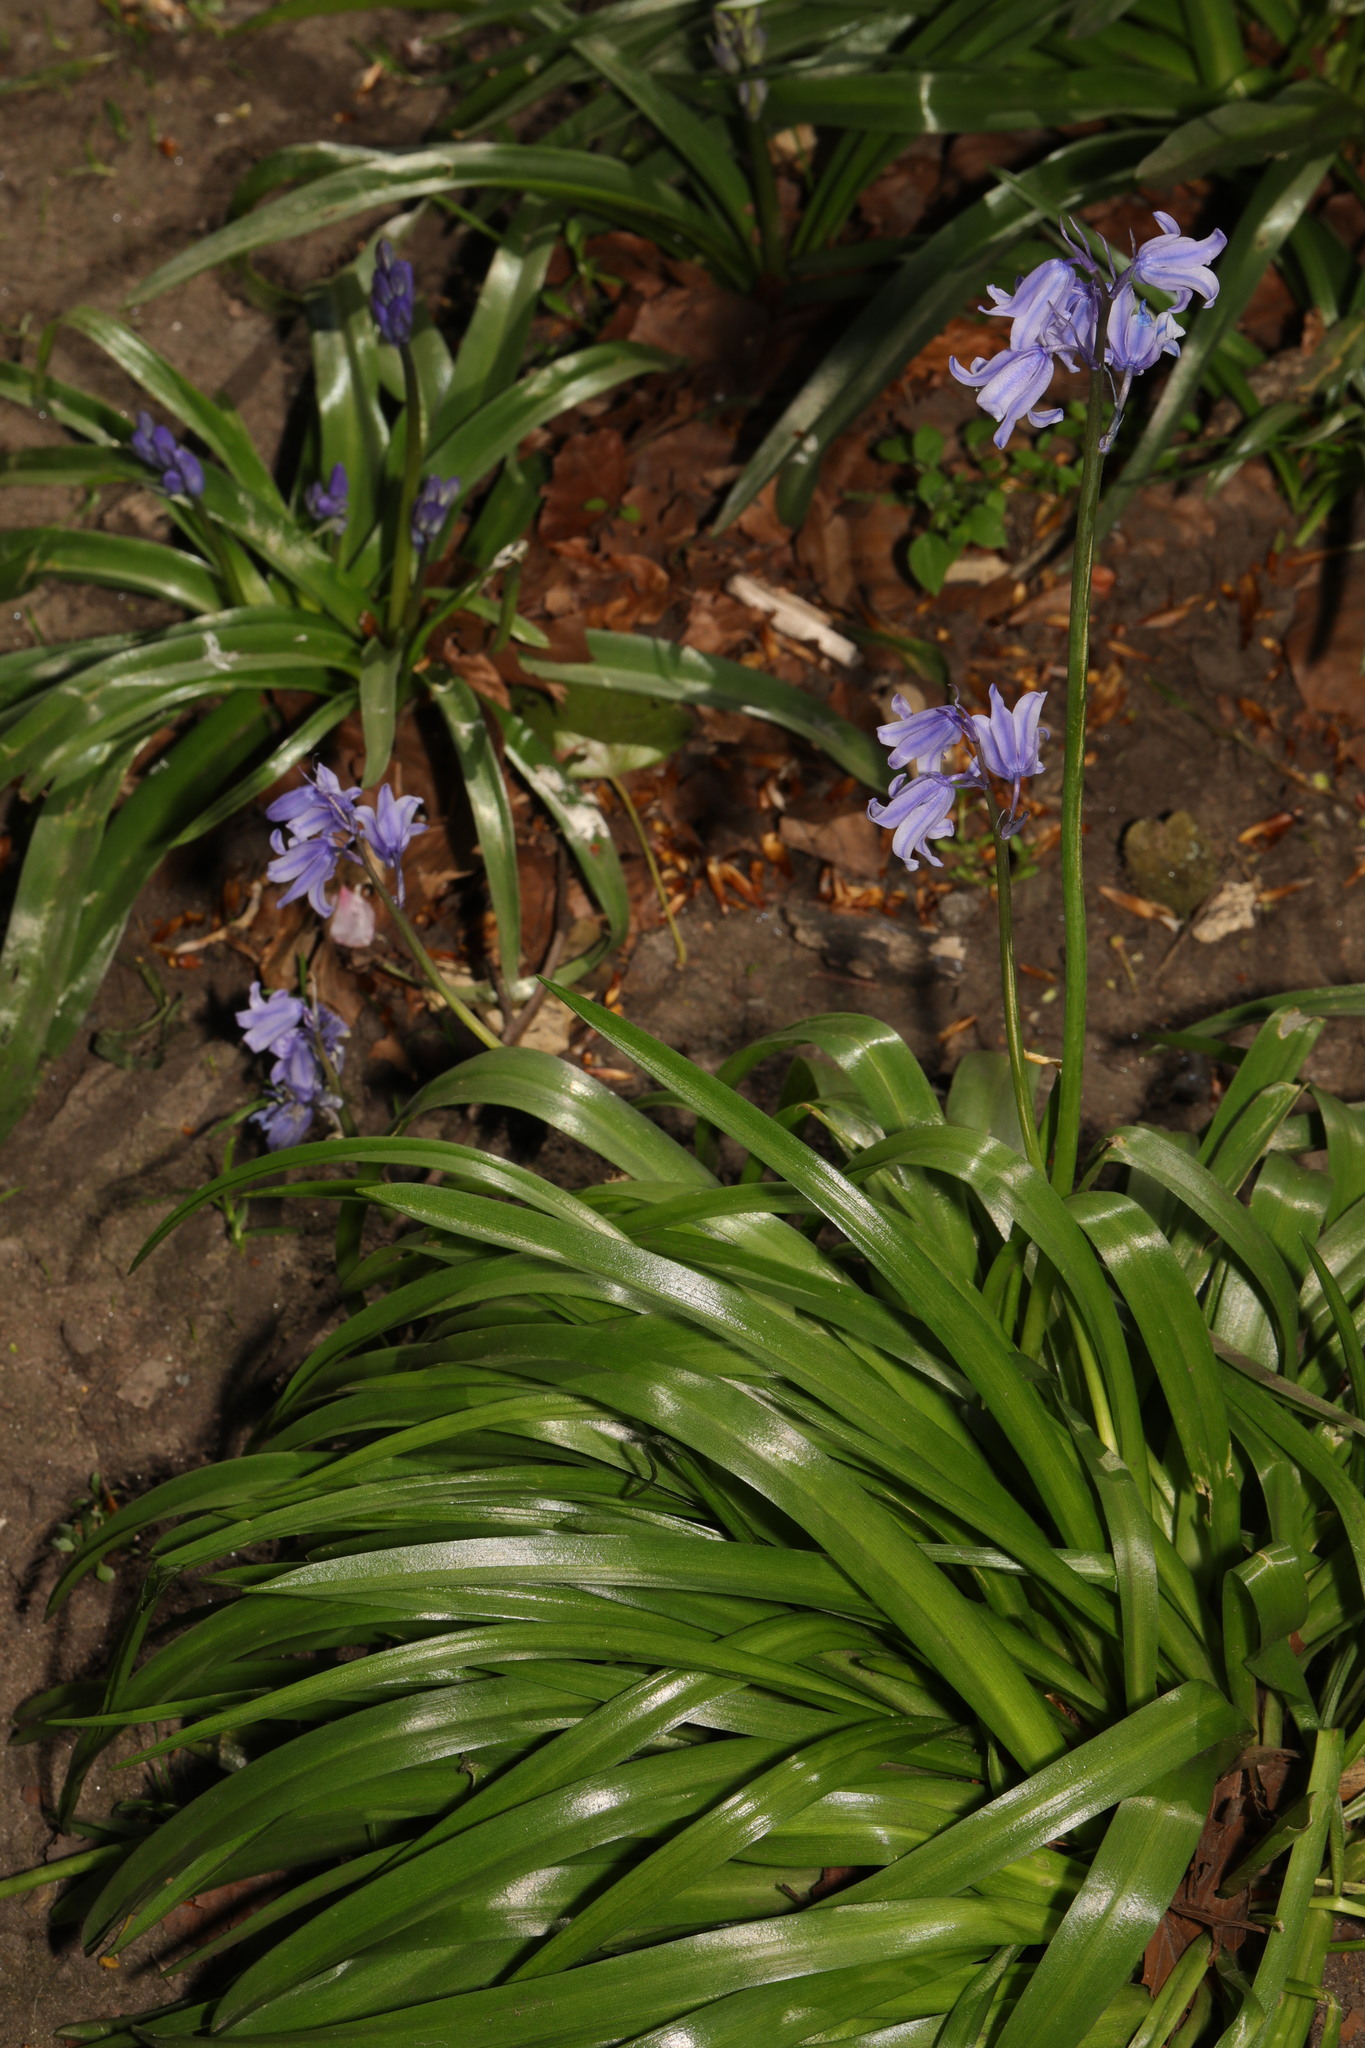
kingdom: Plantae
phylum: Tracheophyta
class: Liliopsida
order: Asparagales
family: Asparagaceae
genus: Hyacinthoides
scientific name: Hyacinthoides massartiana
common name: Hyacinthoides
